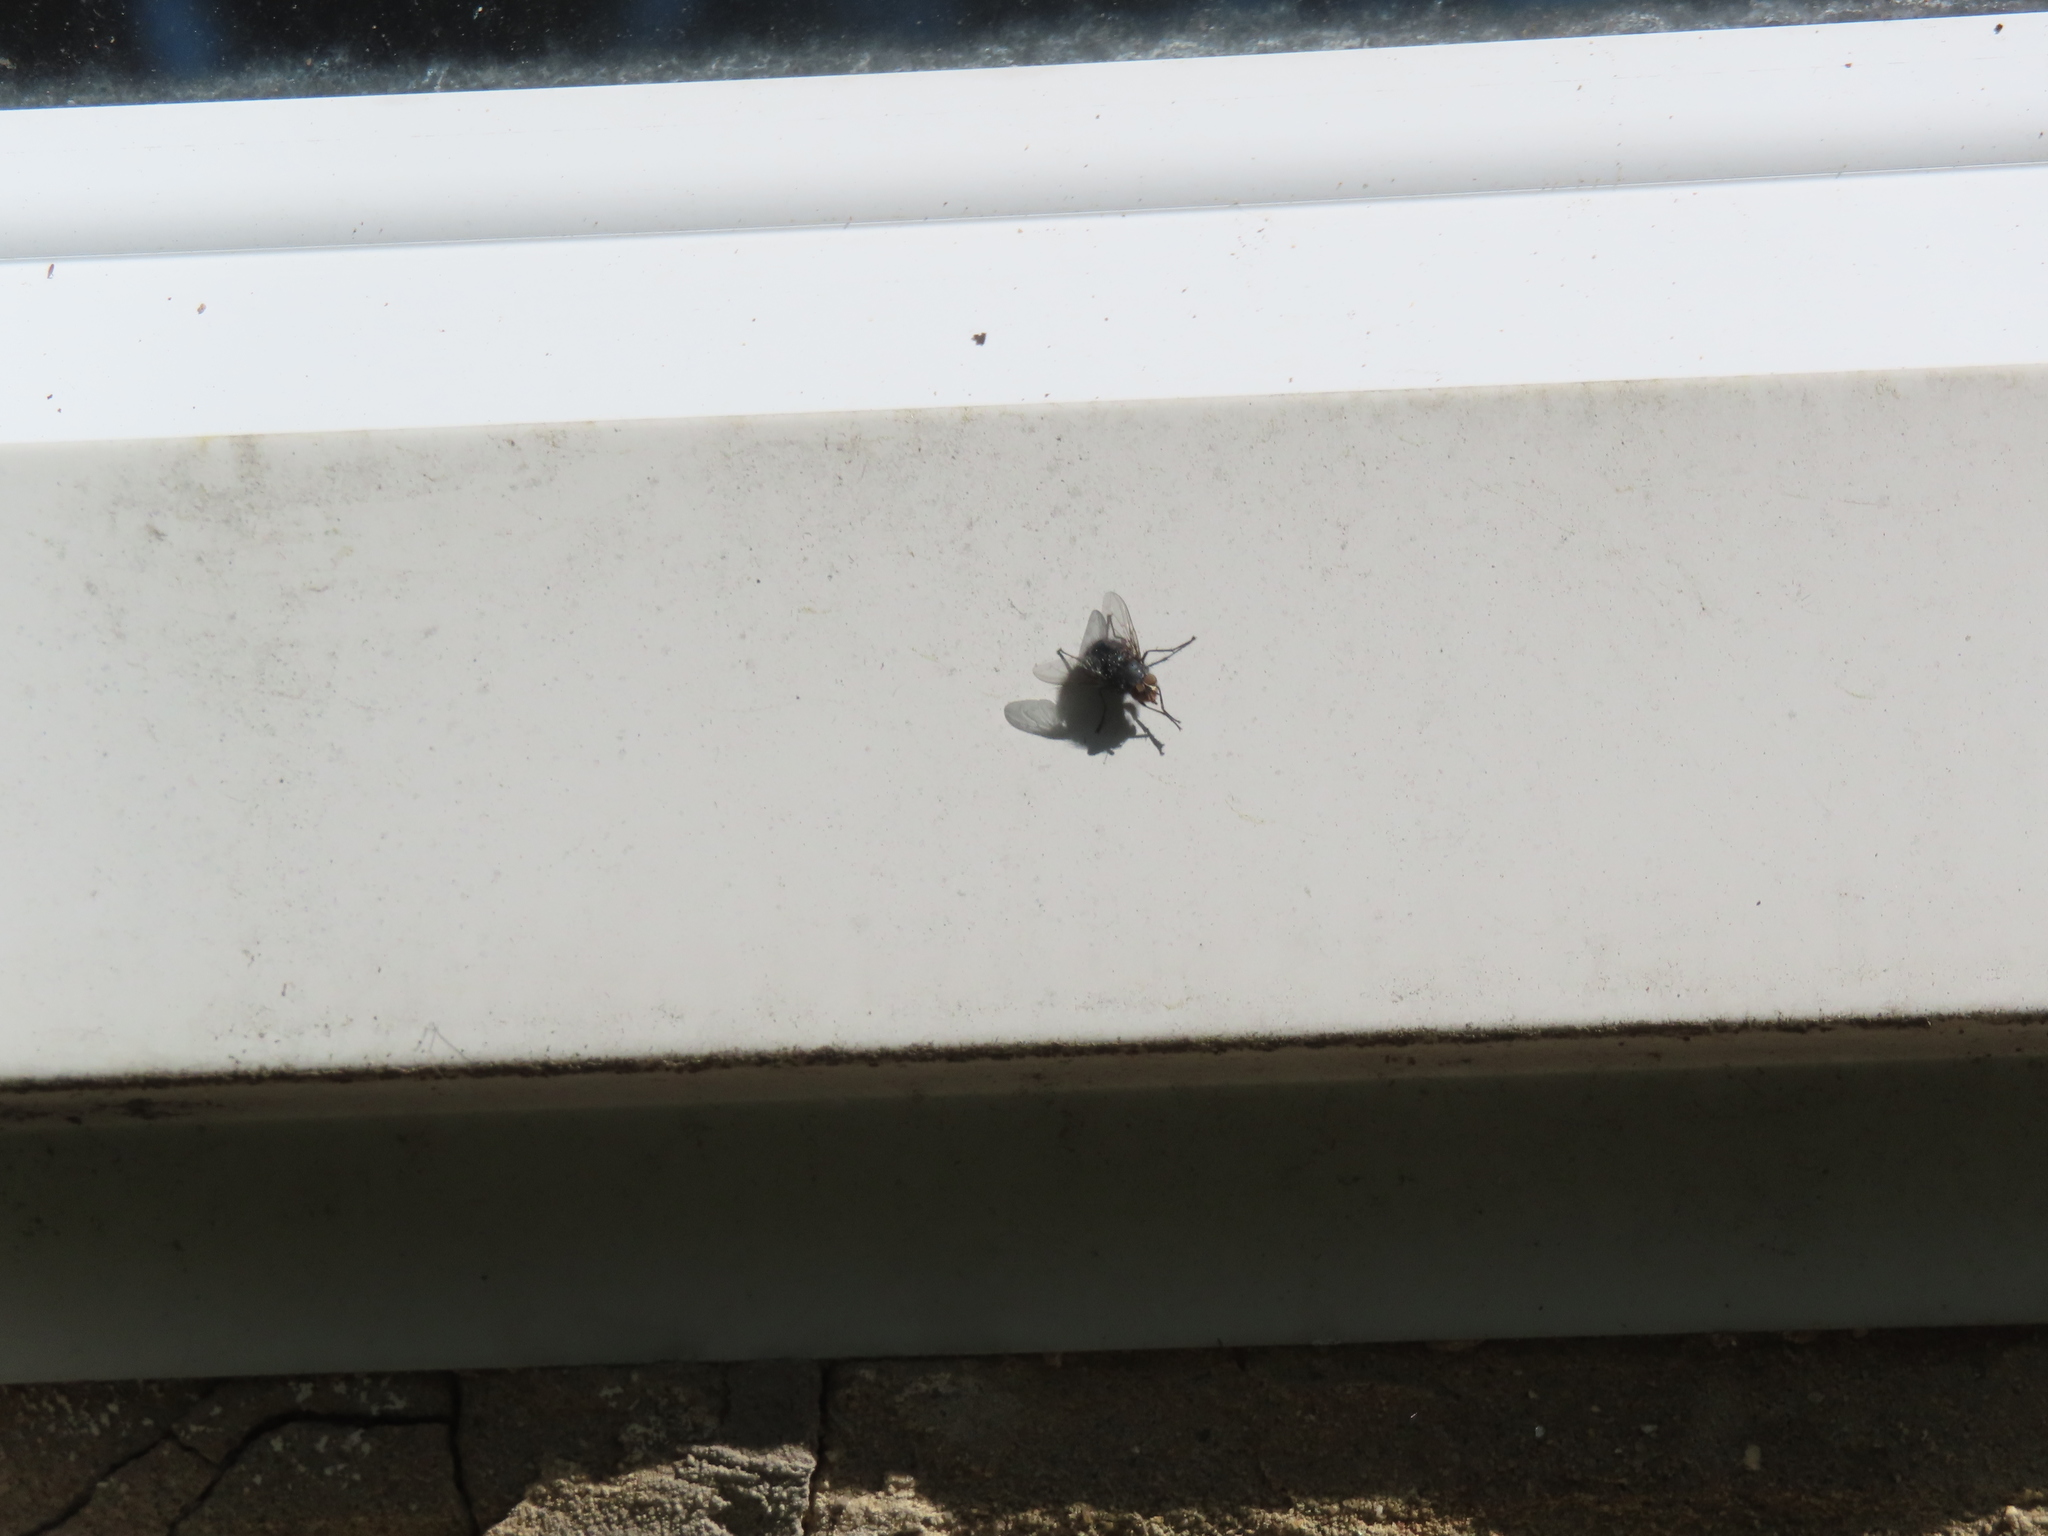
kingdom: Animalia
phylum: Arthropoda
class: Insecta
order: Diptera
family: Calliphoridae
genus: Calliphora
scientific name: Calliphora vicina
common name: Common blow flie
